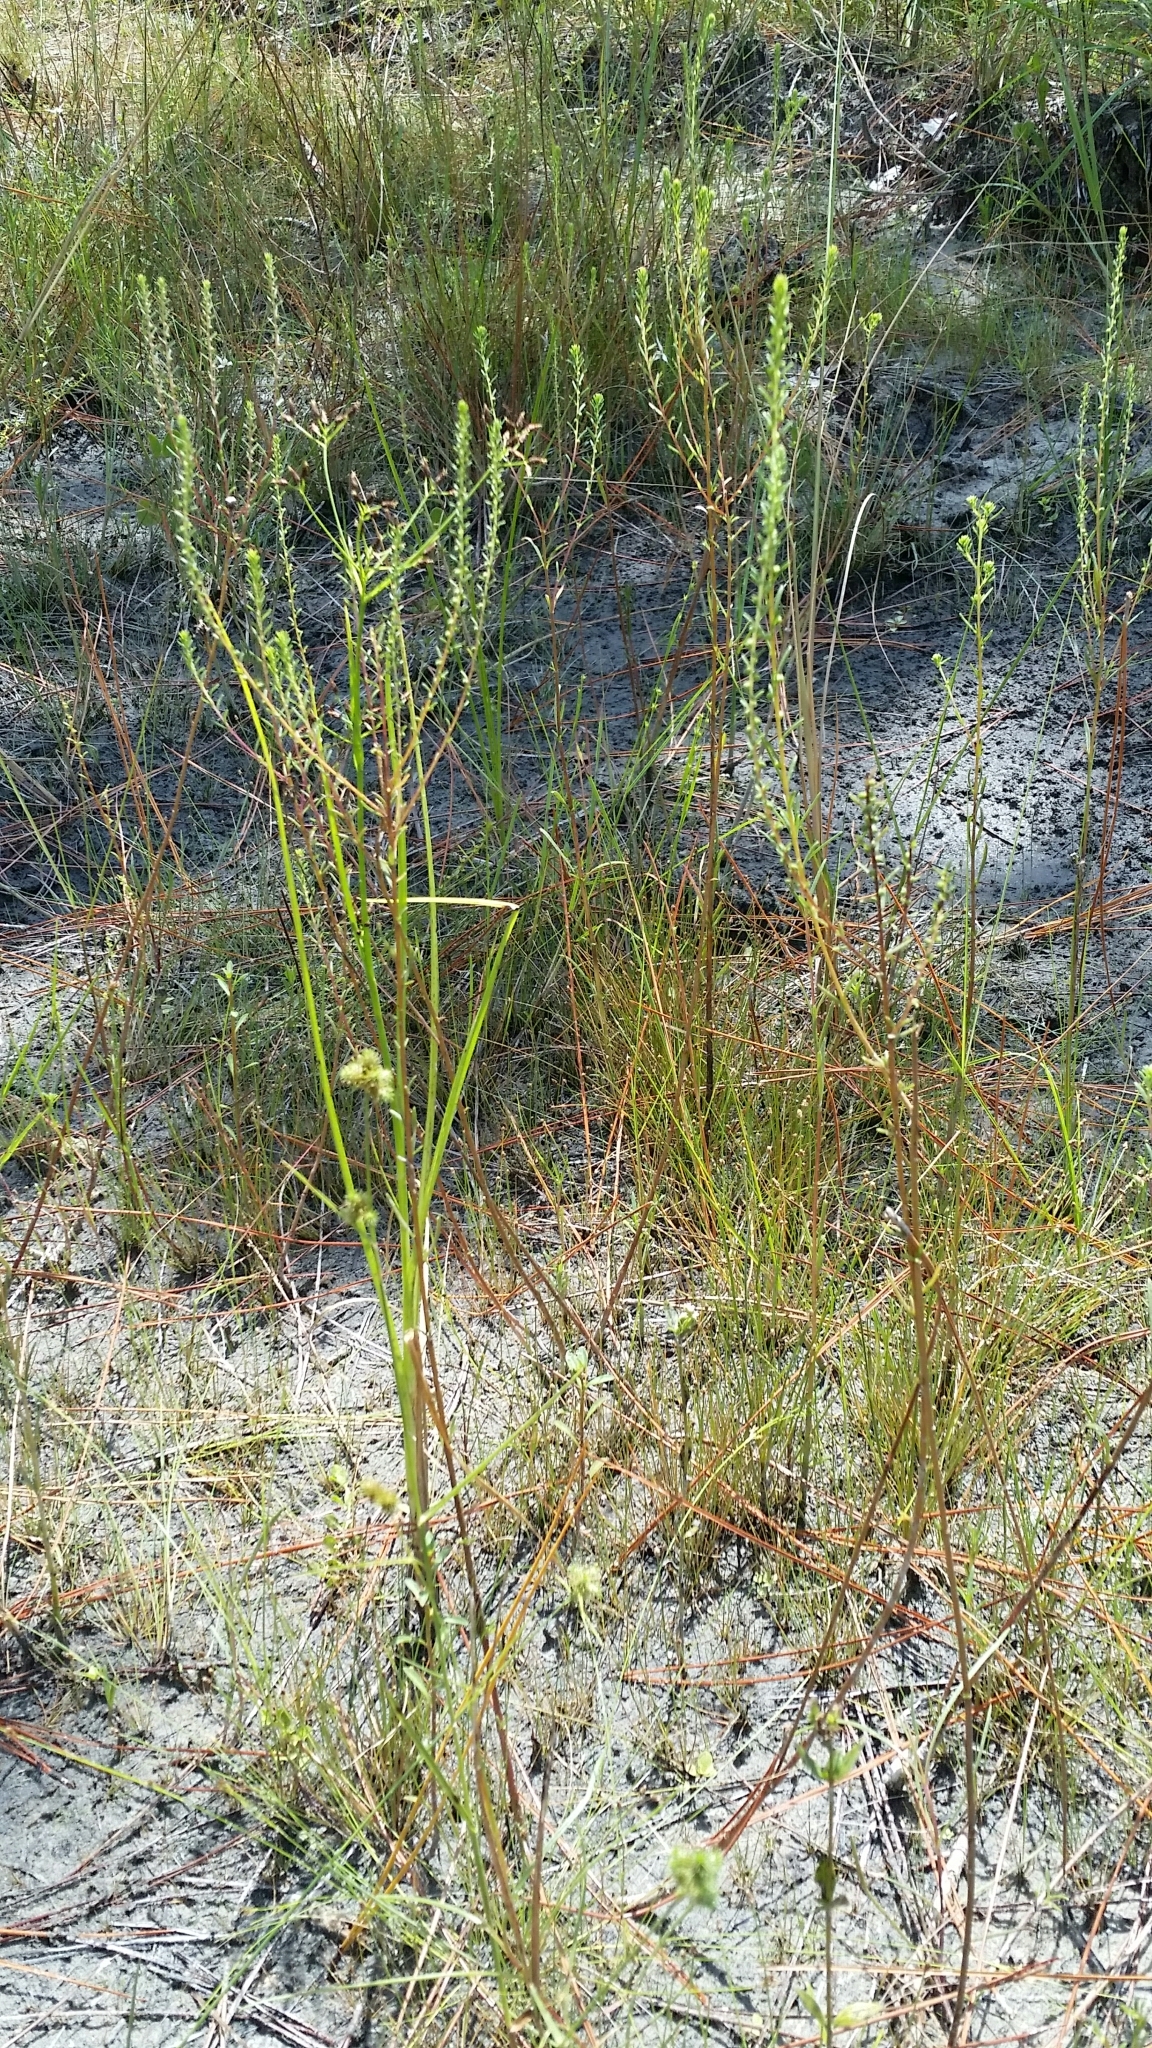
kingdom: Plantae
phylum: Tracheophyta
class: Magnoliopsida
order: Asterales
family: Asteraceae
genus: Iva
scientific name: Iva microcephala
